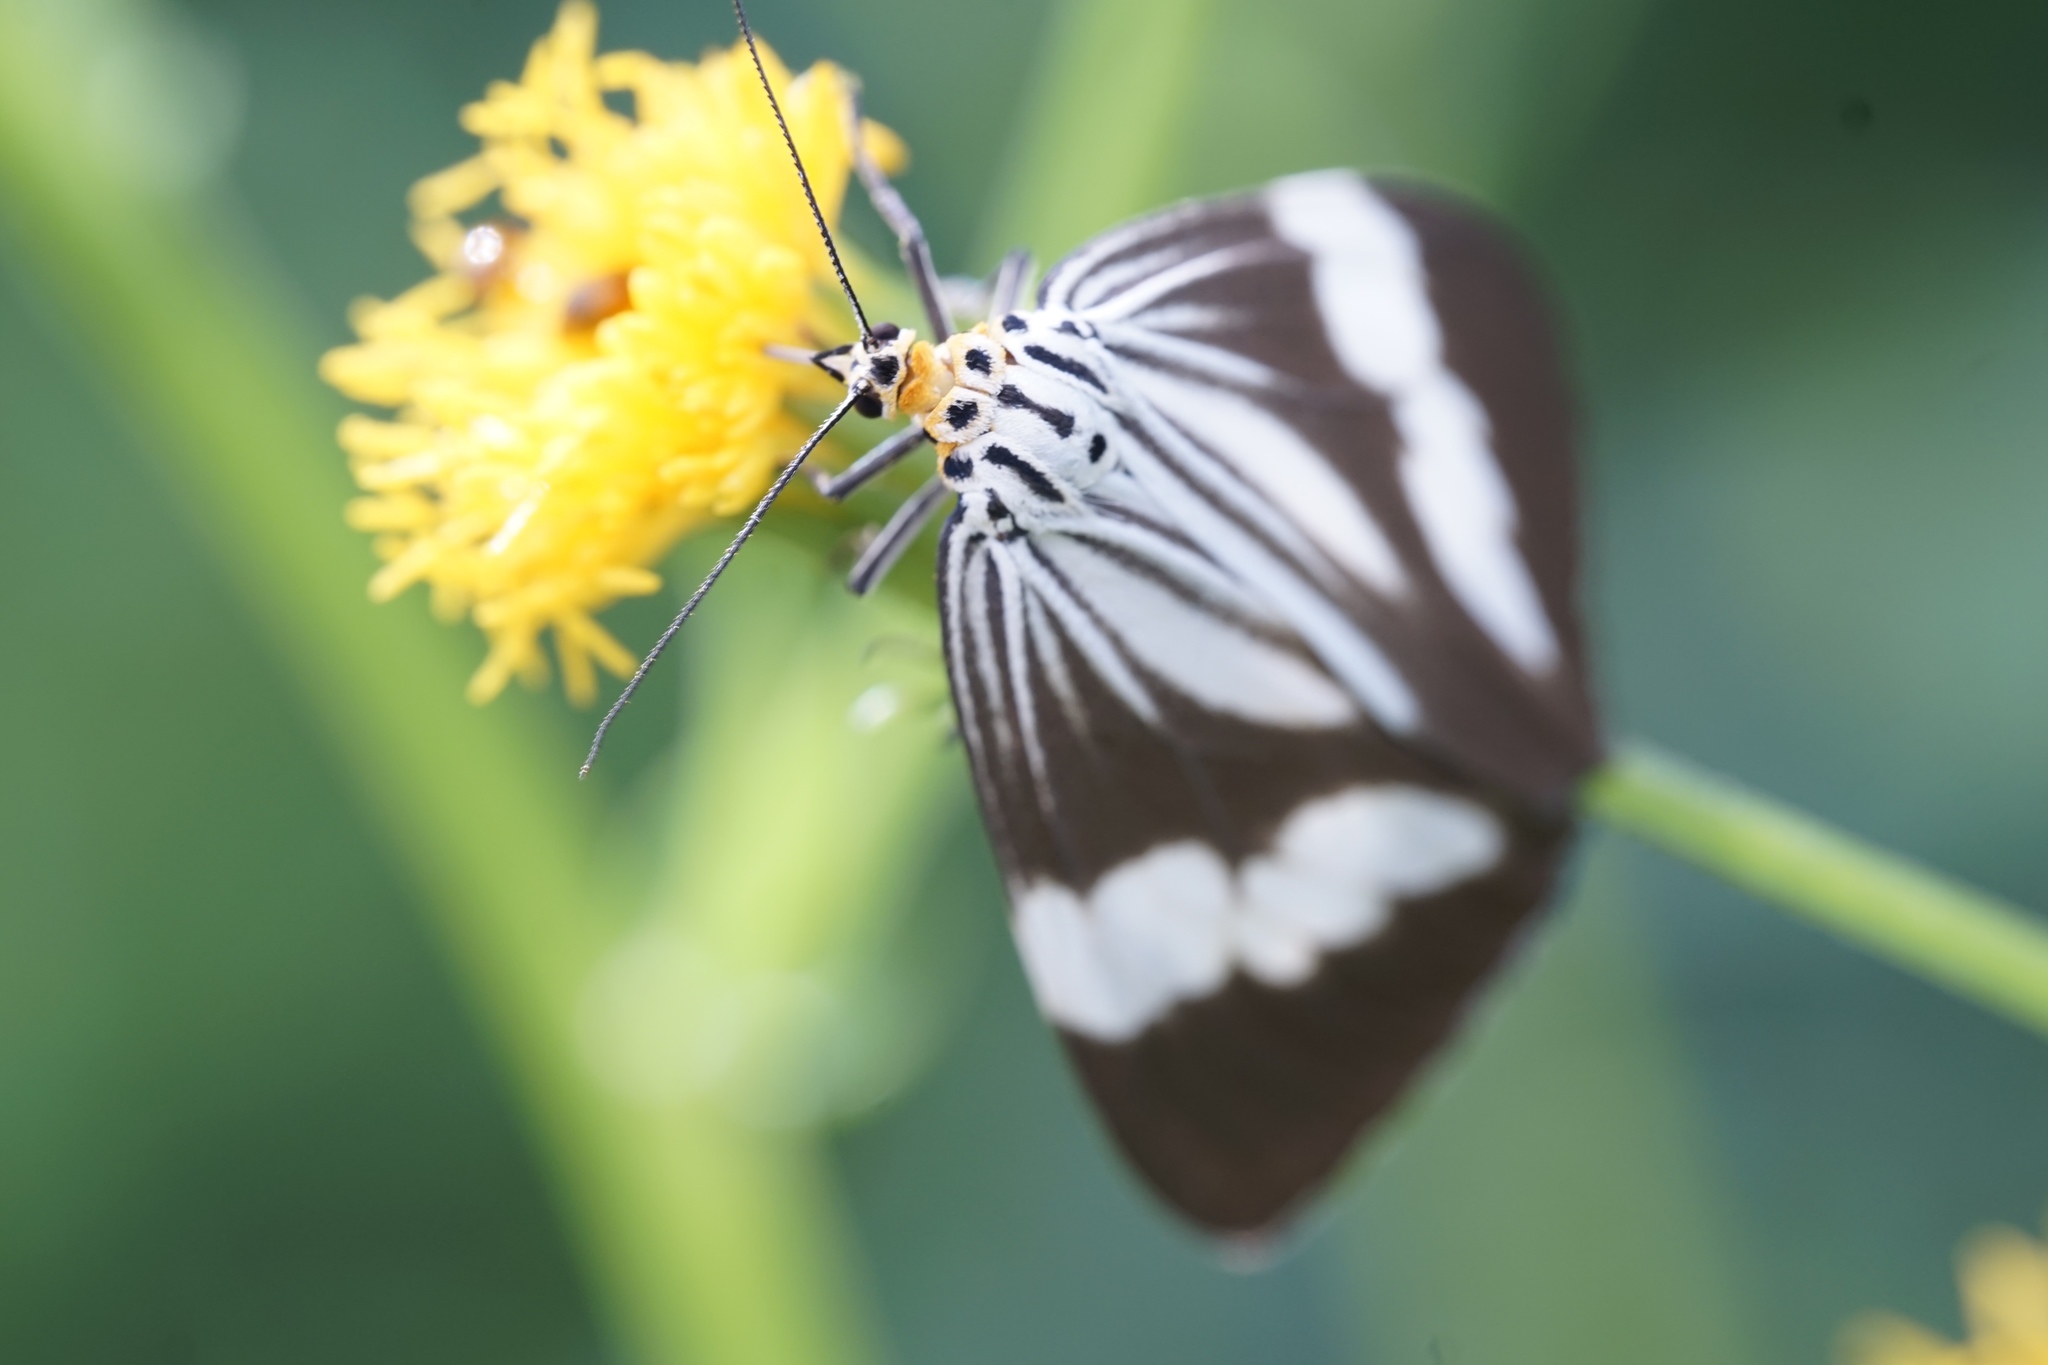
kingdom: Animalia
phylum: Arthropoda
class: Insecta
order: Lepidoptera
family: Erebidae
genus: Nyctemera
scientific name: Nyctemera tripunctaria
